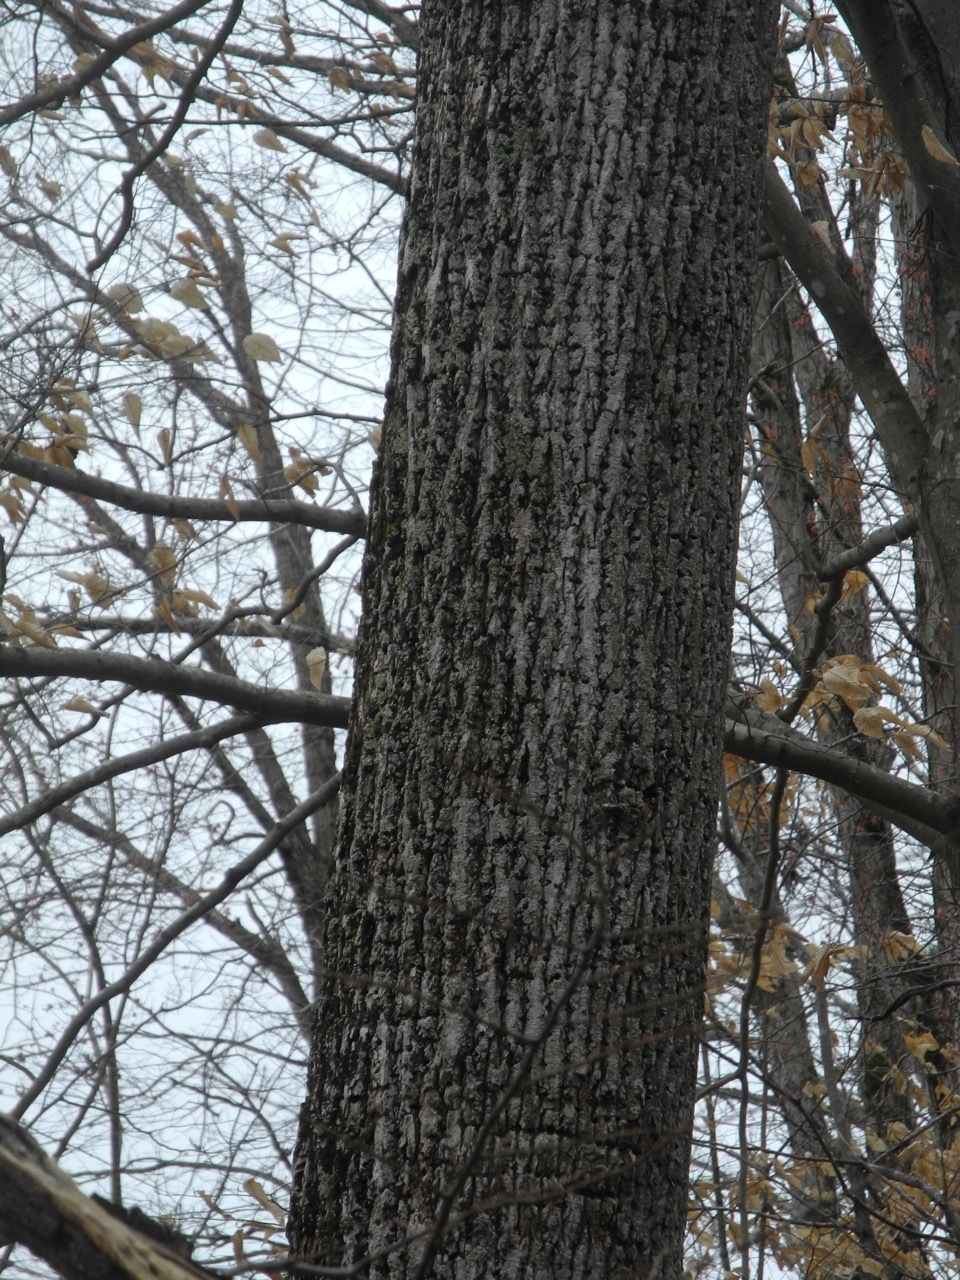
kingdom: Plantae
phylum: Tracheophyta
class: Magnoliopsida
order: Magnoliales
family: Magnoliaceae
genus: Liriodendron
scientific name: Liriodendron tulipifera
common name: Tulip tree
